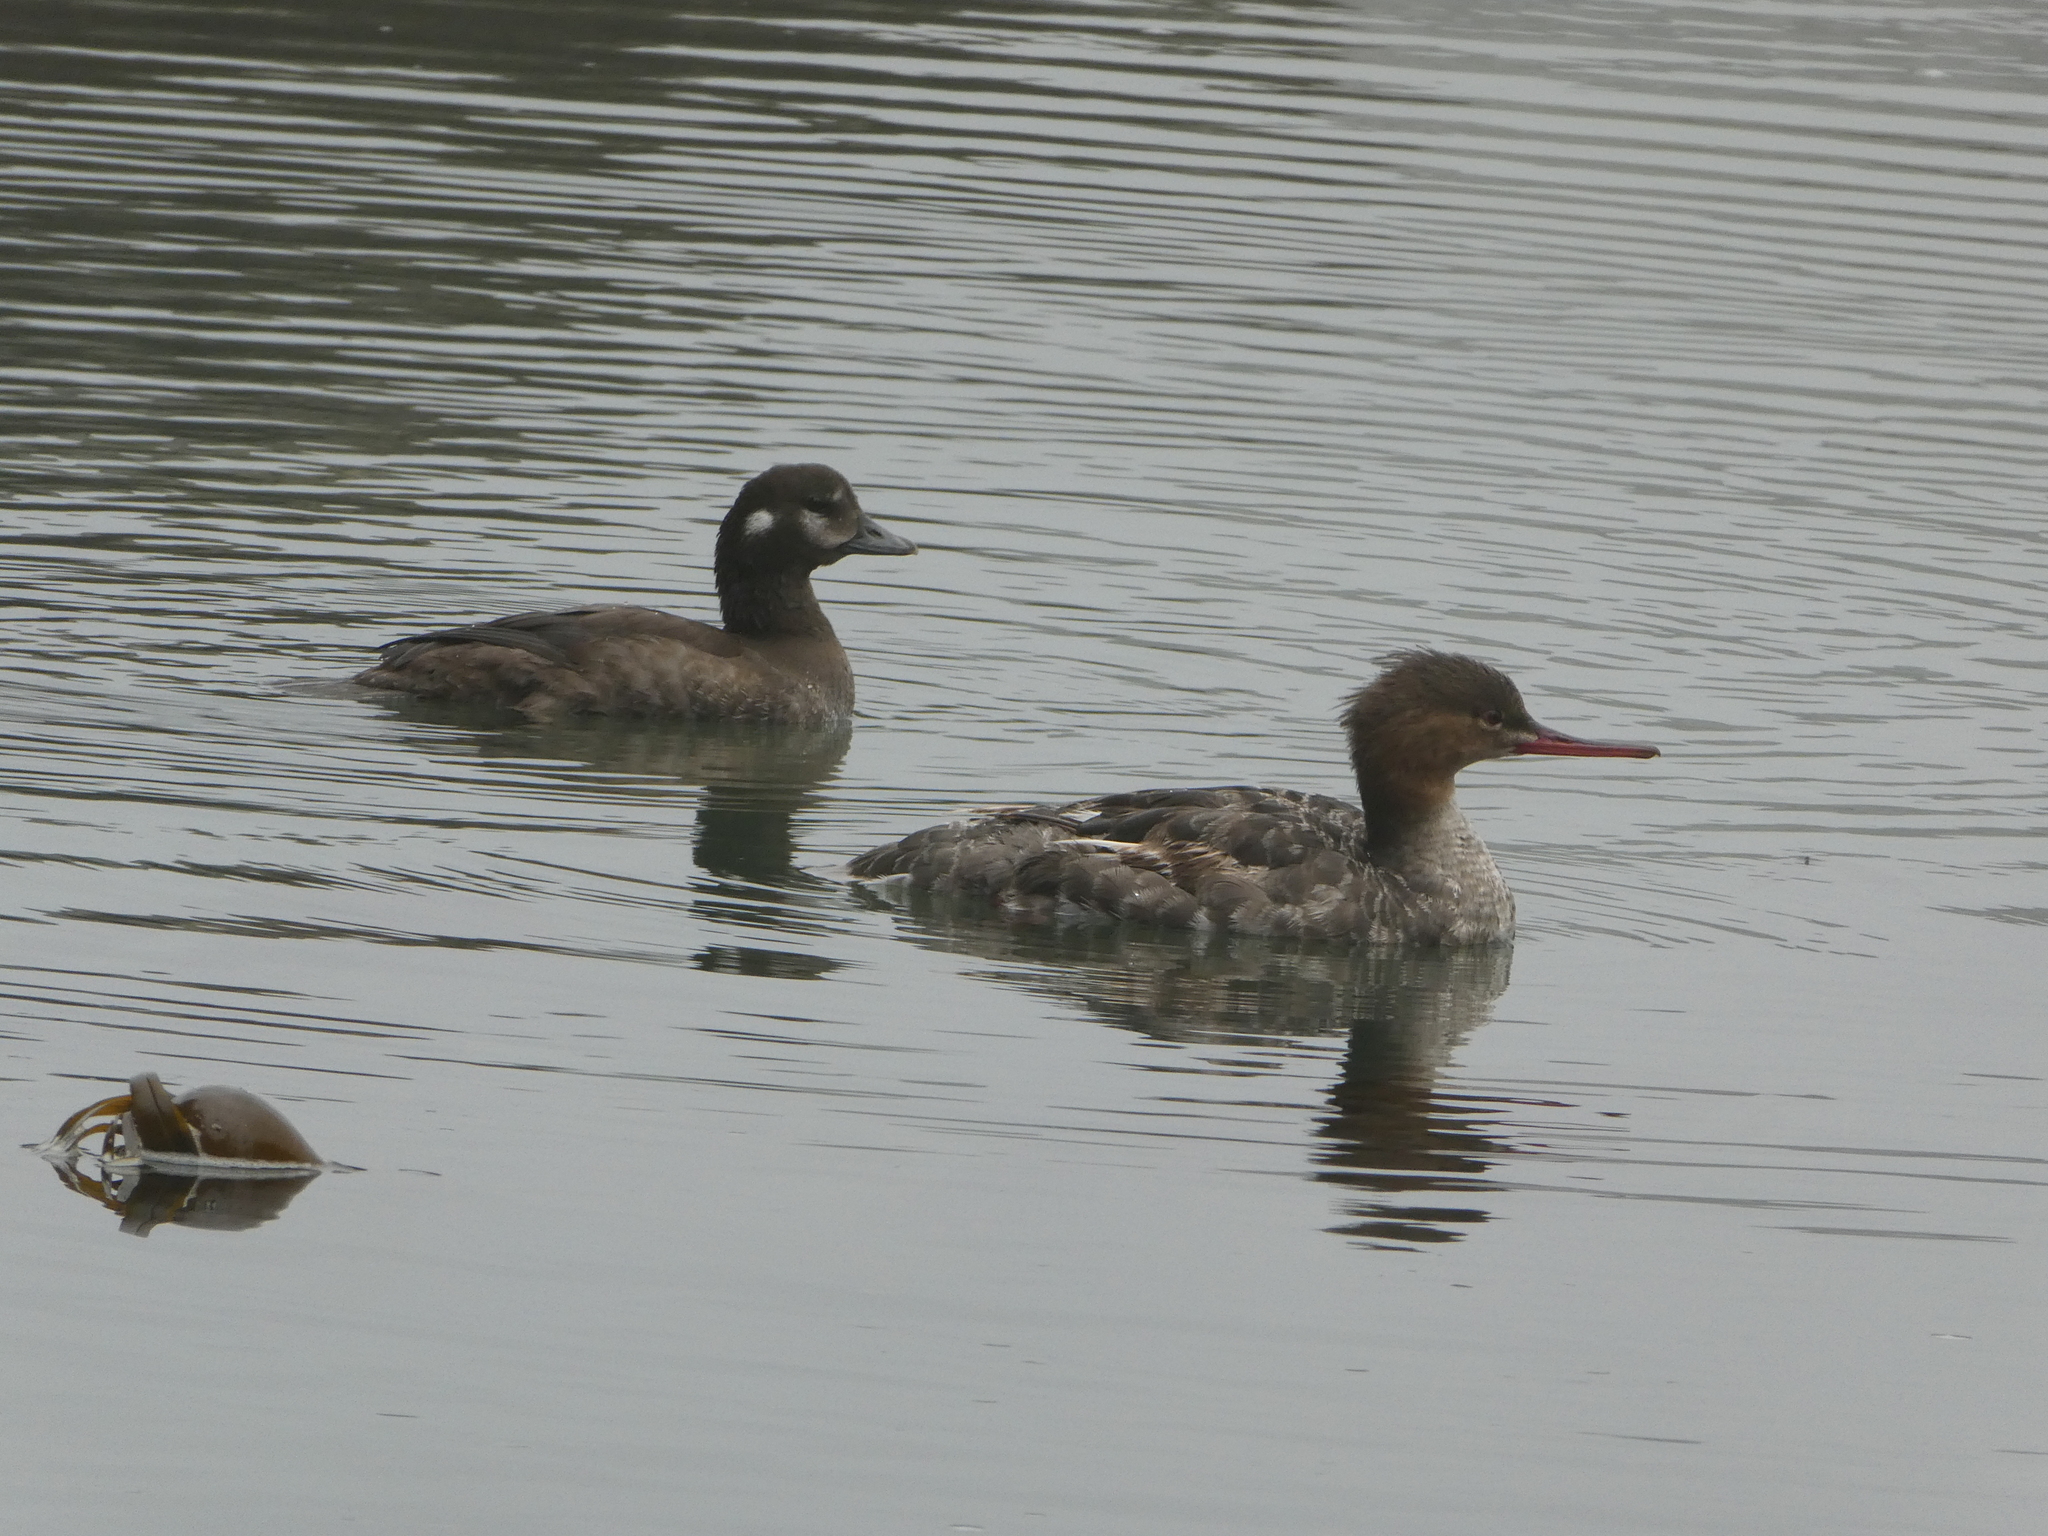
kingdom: Animalia
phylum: Chordata
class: Aves
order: Anseriformes
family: Anatidae
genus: Mergus
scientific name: Mergus serrator
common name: Red-breasted merganser
